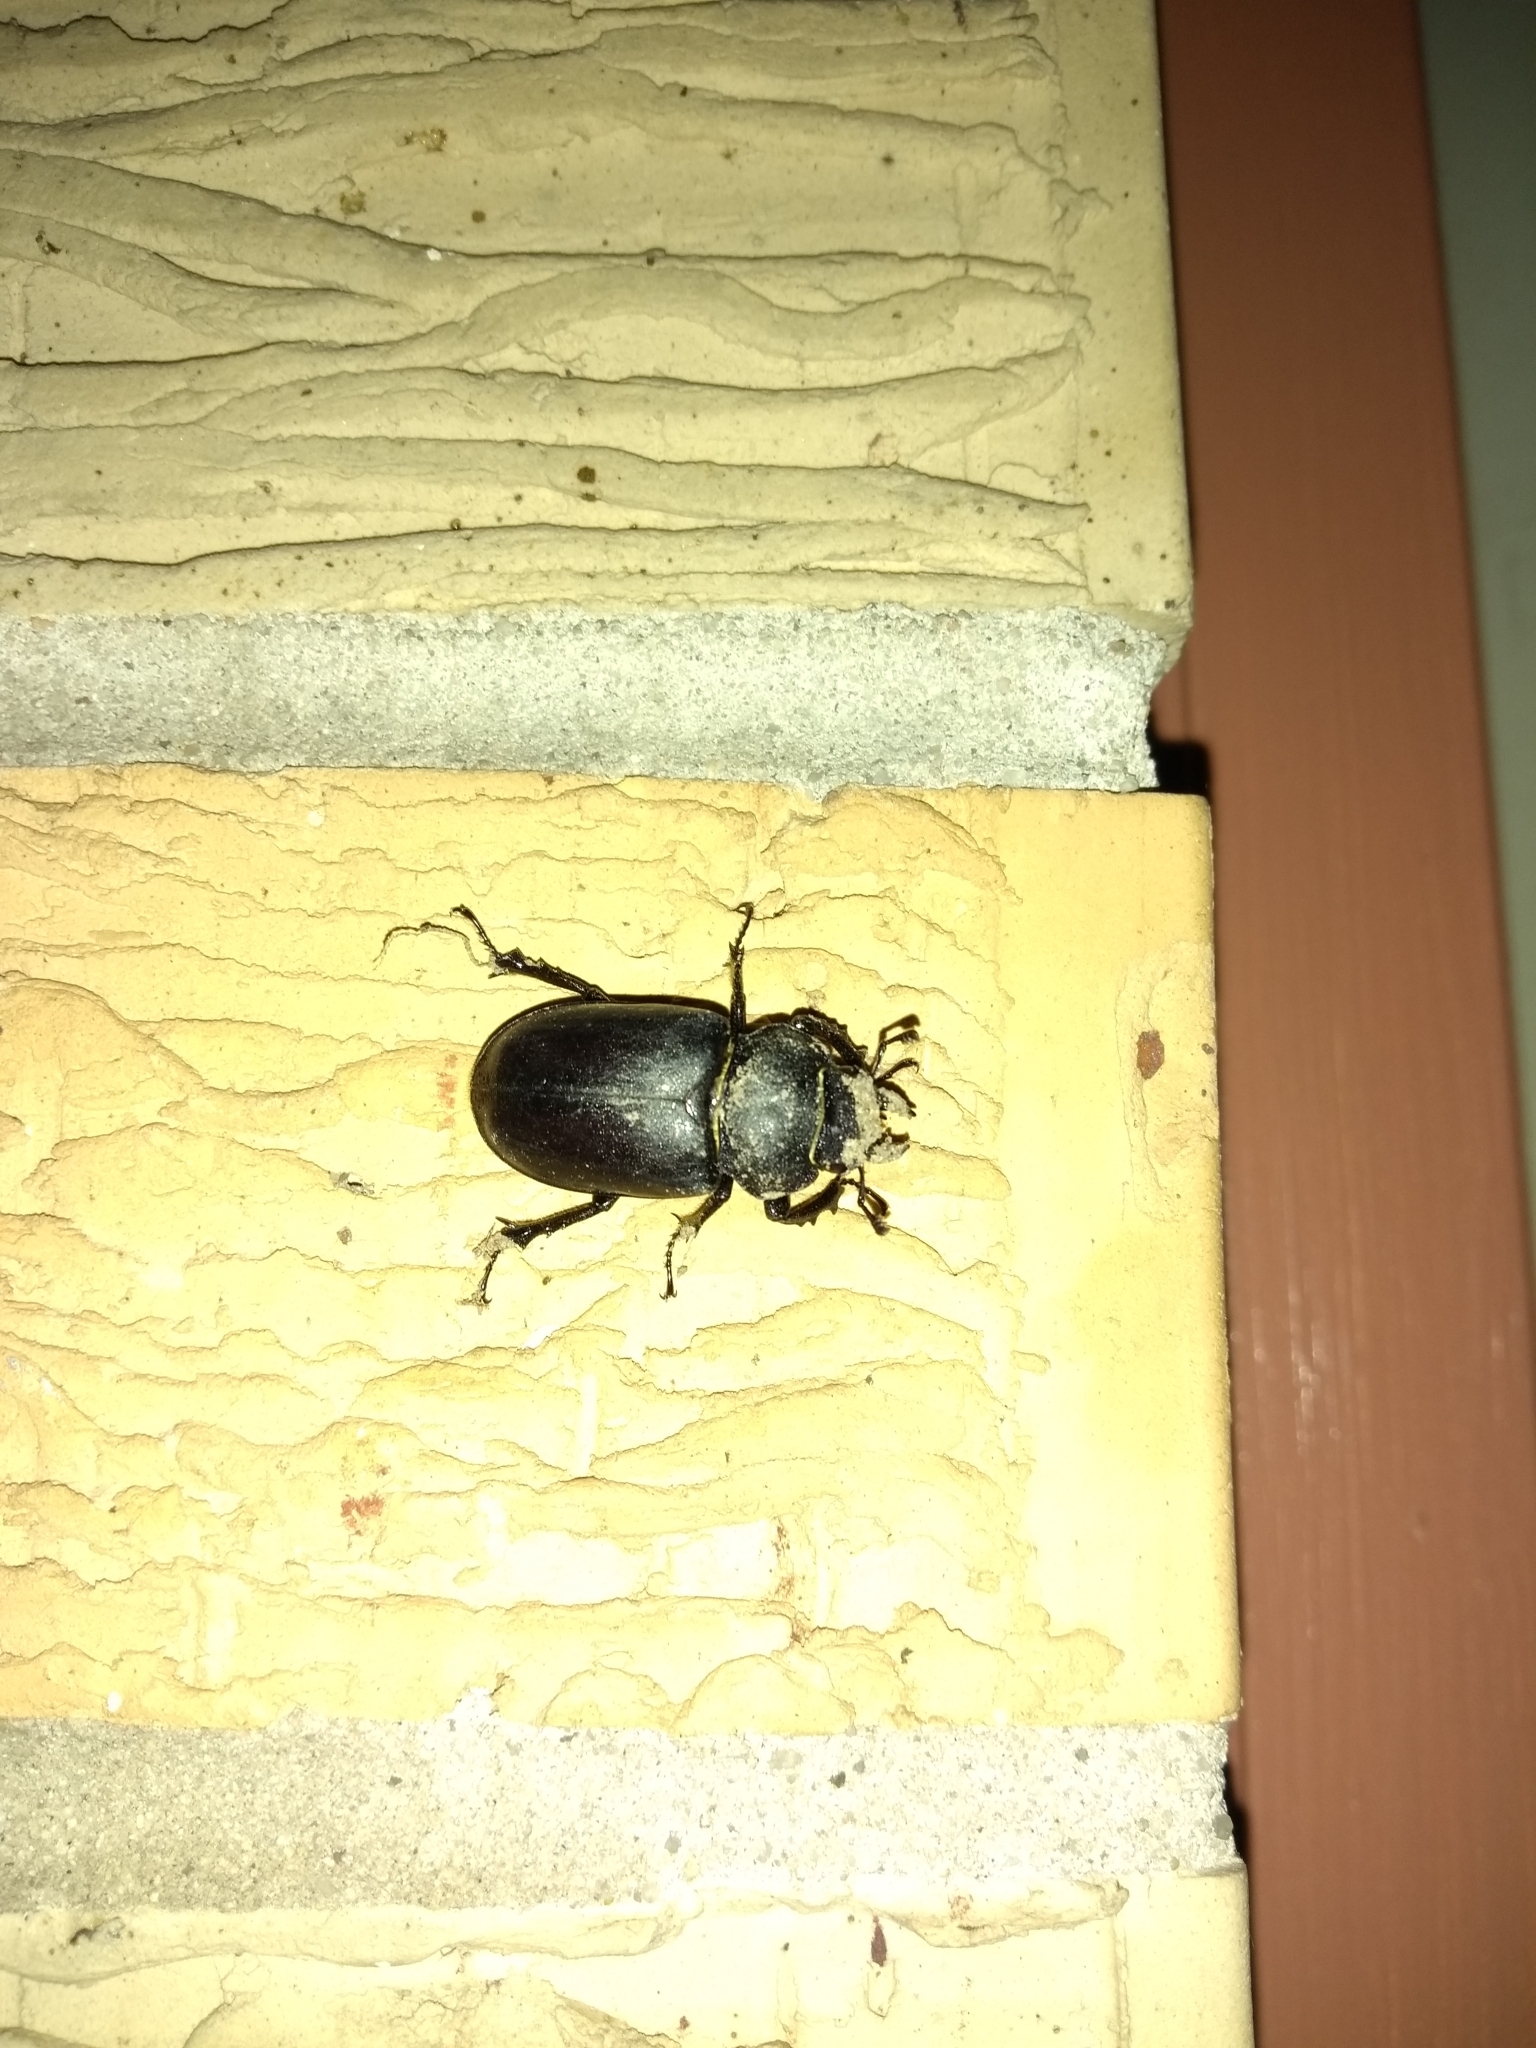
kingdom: Animalia
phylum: Arthropoda
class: Insecta
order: Coleoptera
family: Lucanidae
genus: Lucanus
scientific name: Lucanus mazama
